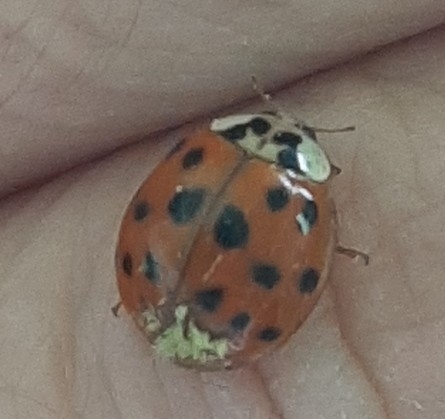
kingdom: Fungi
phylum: Ascomycota
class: Laboulbeniomycetes
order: Laboulbeniales
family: Laboulbeniaceae
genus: Hesperomyces
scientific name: Hesperomyces harmoniae
